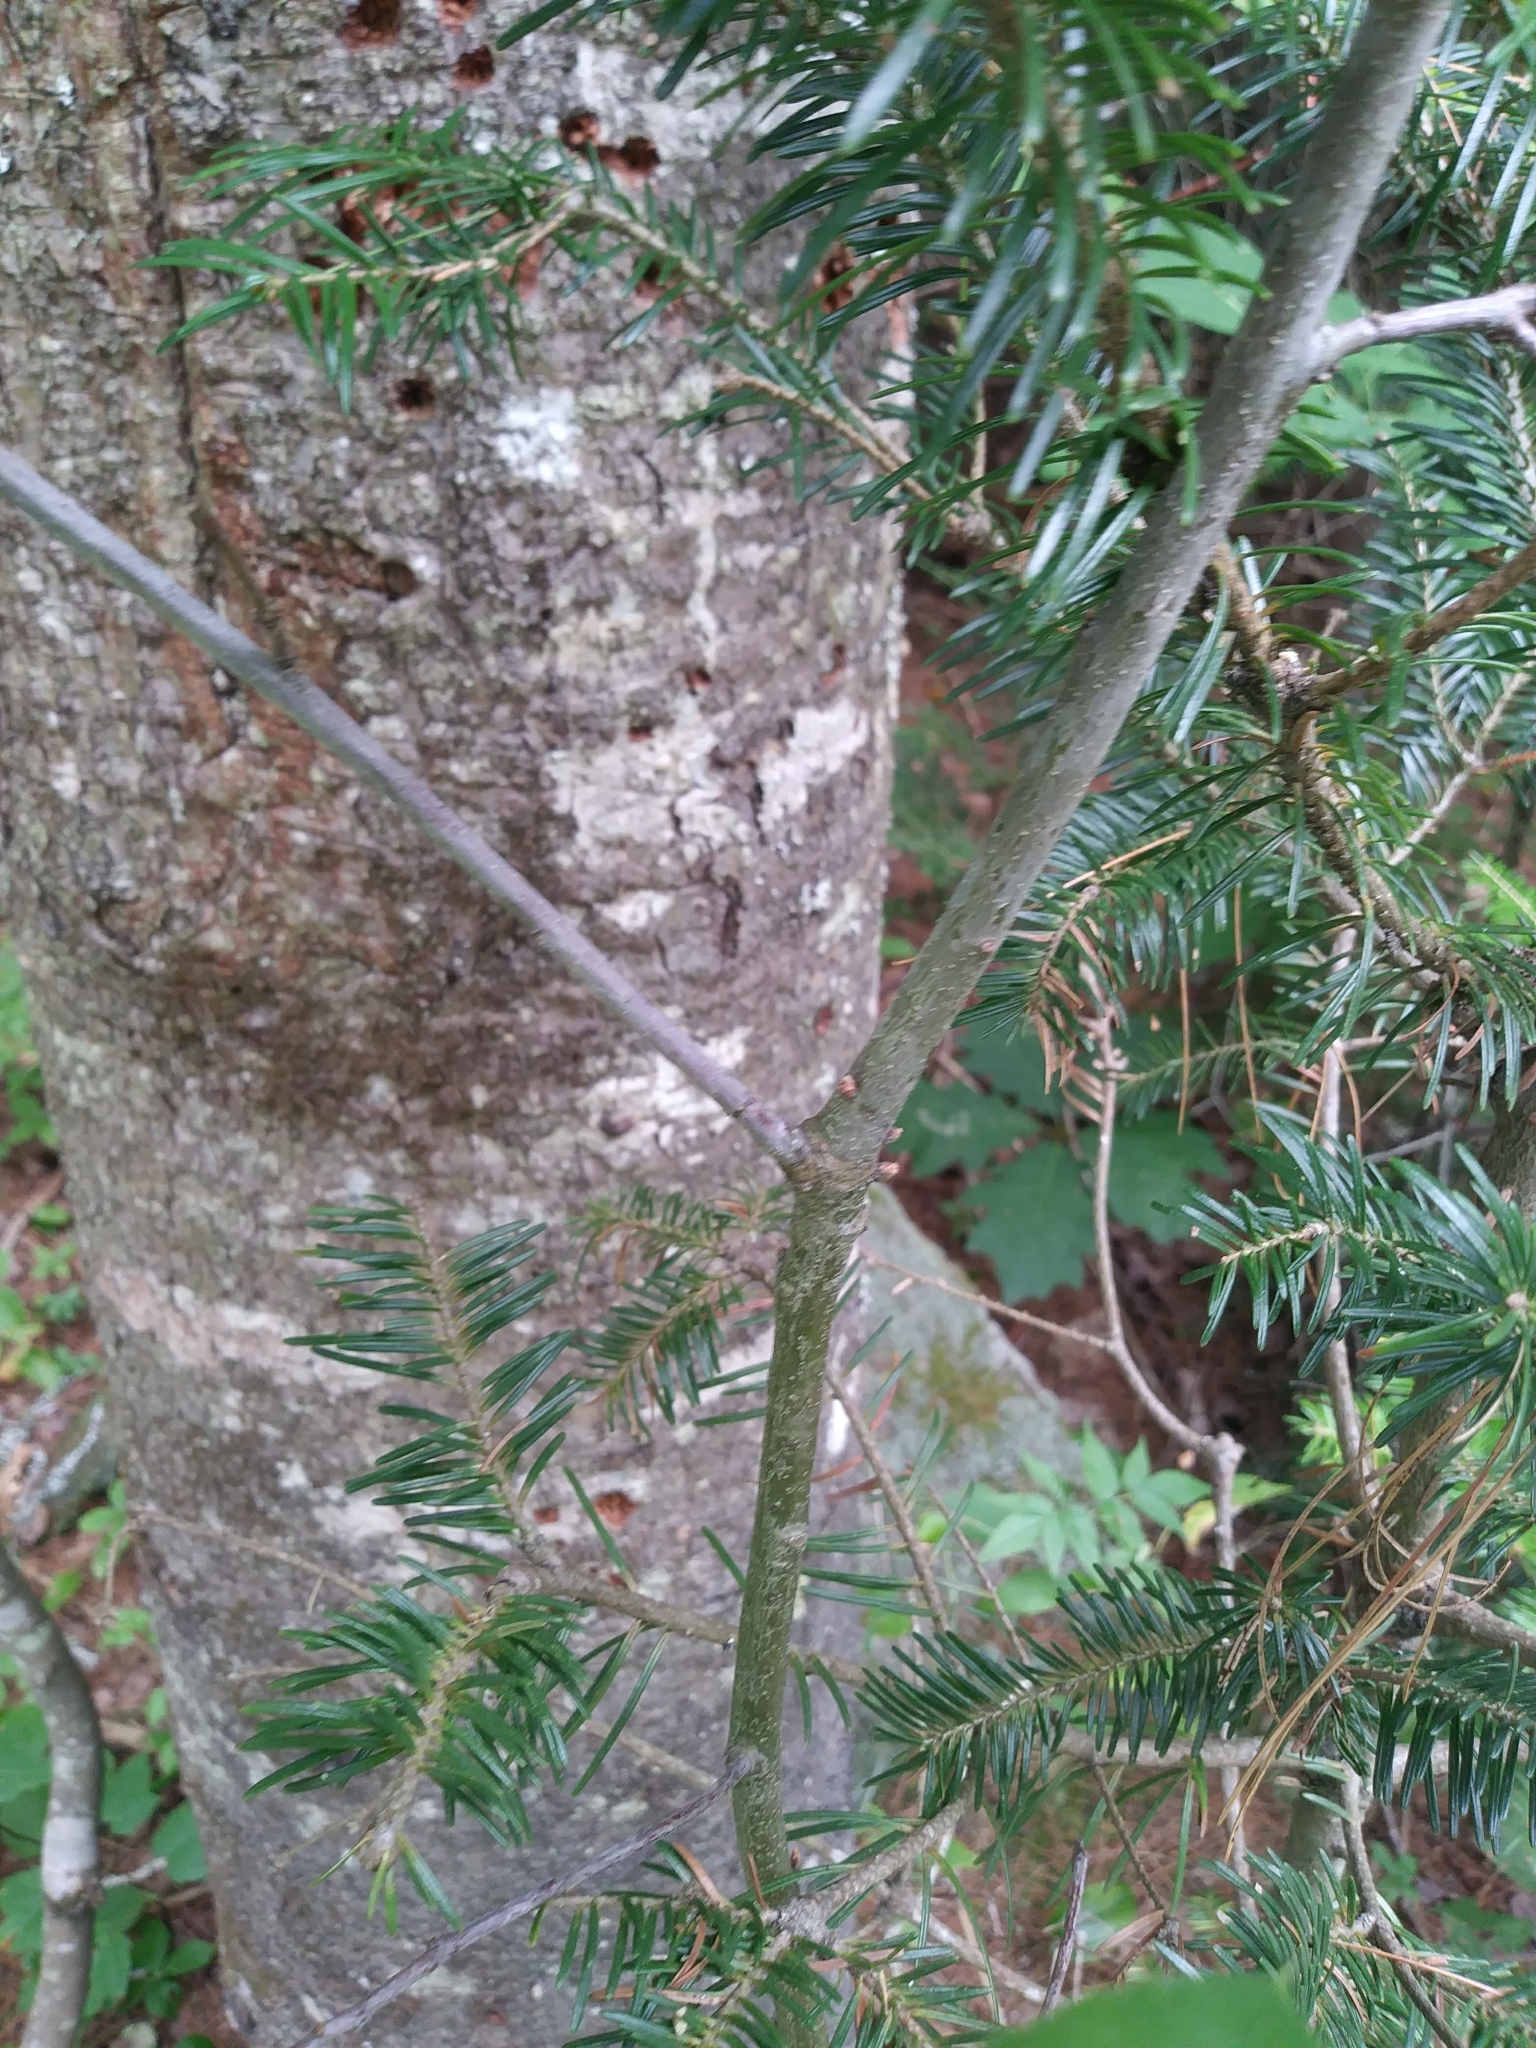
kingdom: Plantae
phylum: Tracheophyta
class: Magnoliopsida
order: Fagales
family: Fagaceae
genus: Quercus
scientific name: Quercus rubra
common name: Red oak
